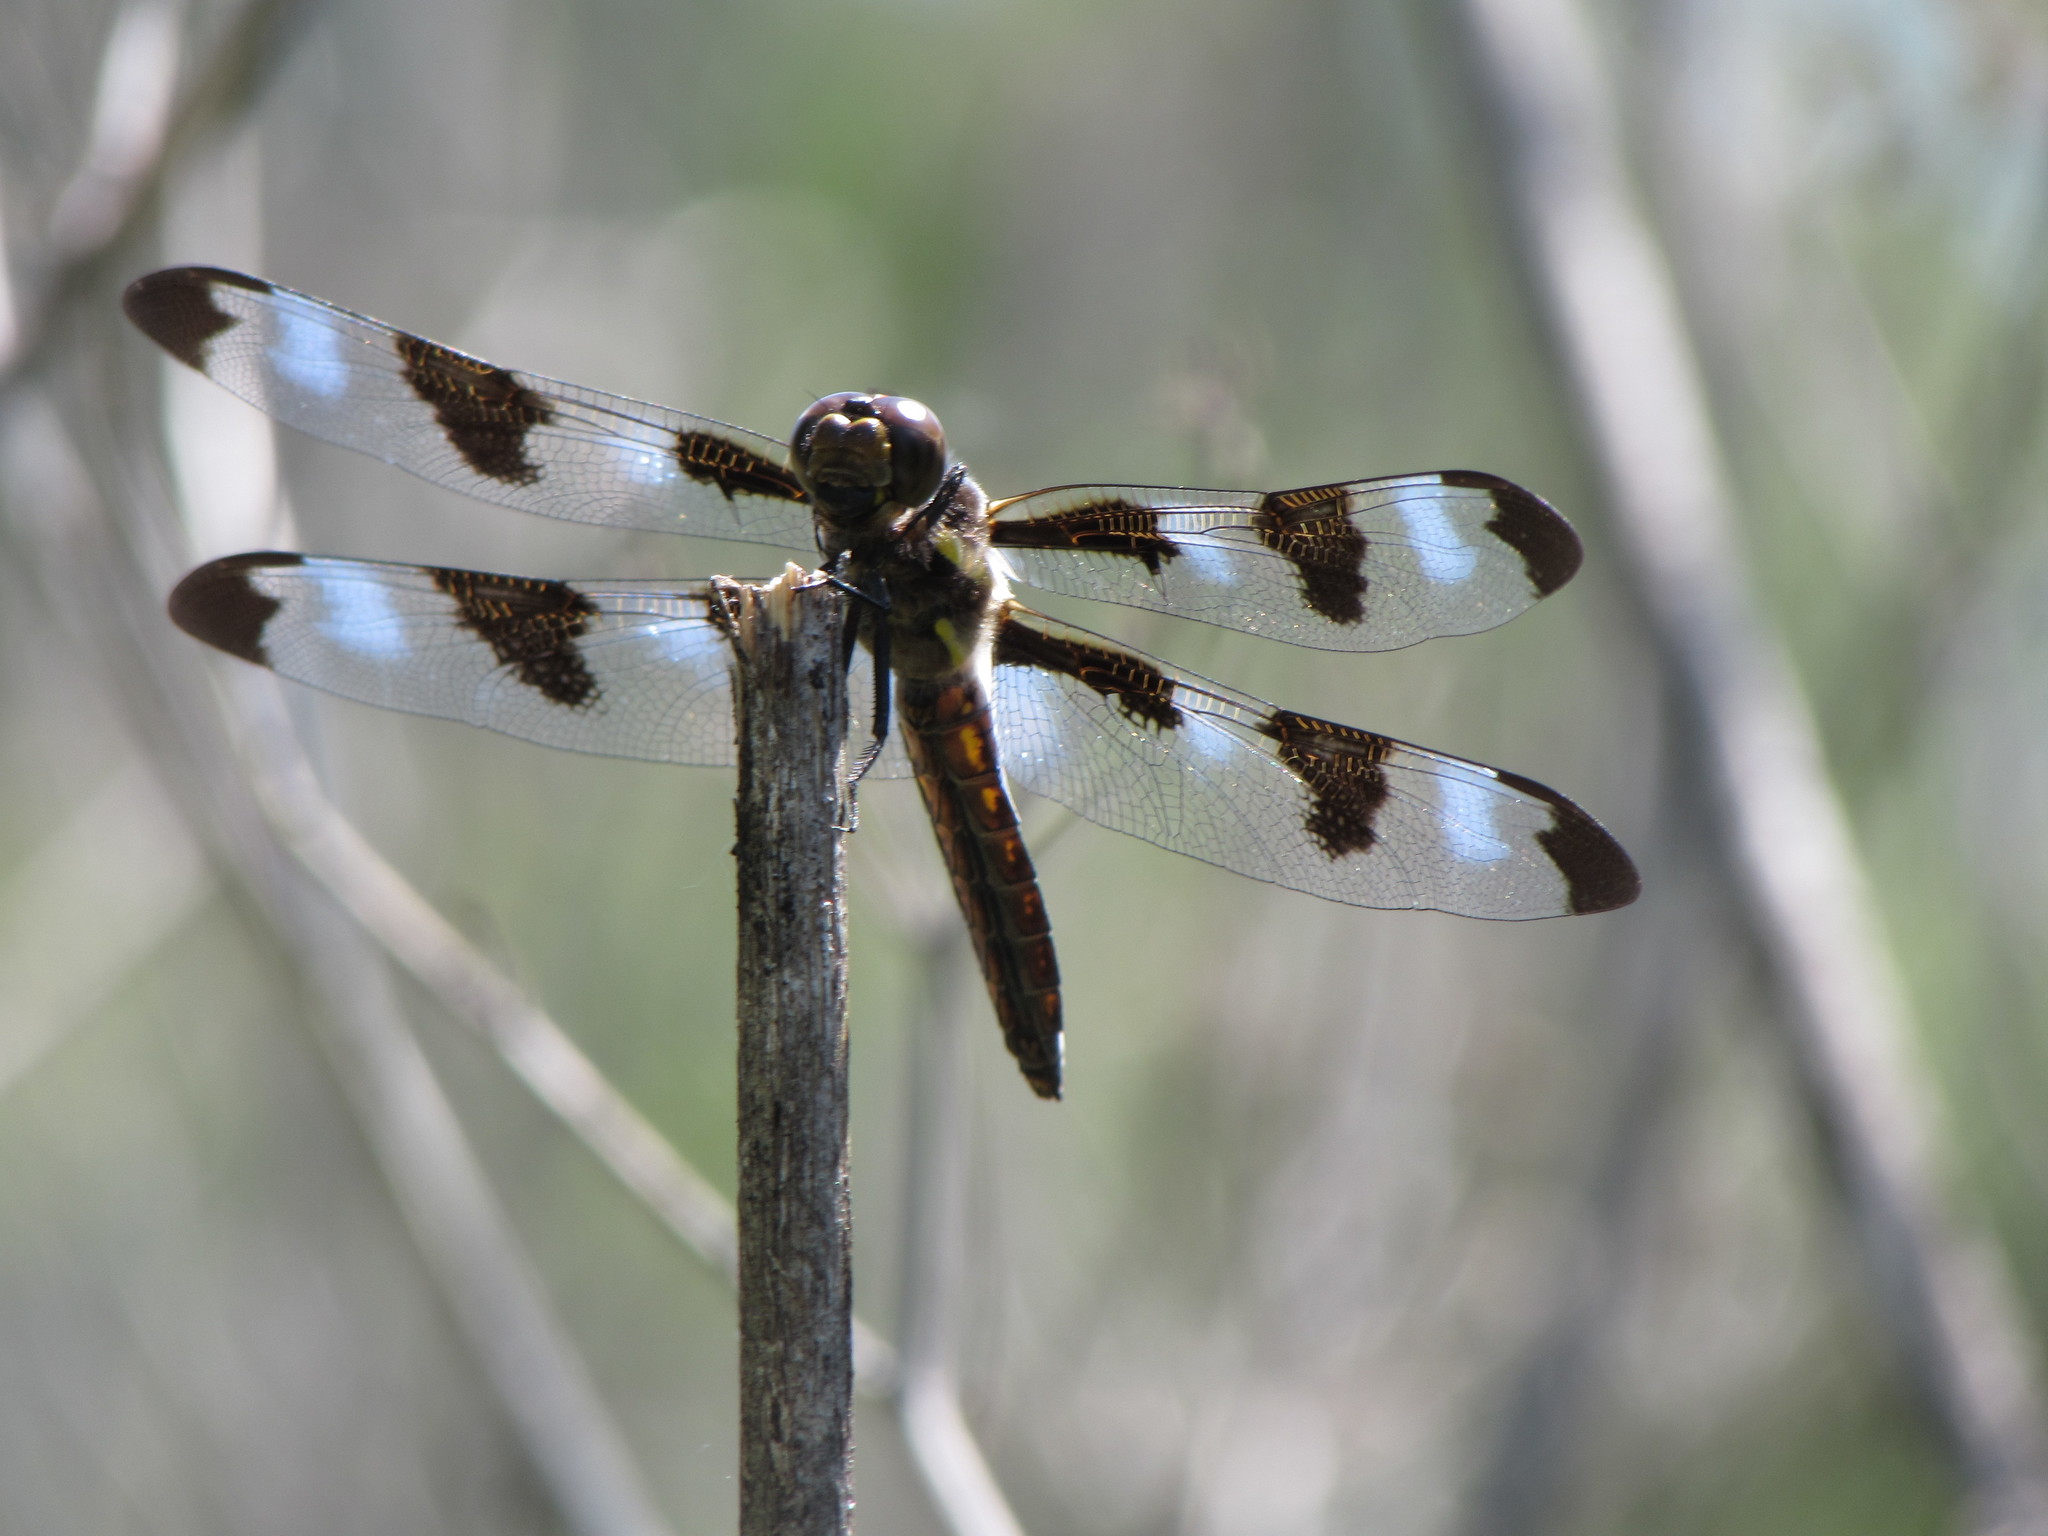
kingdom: Animalia
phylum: Arthropoda
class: Insecta
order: Odonata
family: Libellulidae
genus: Libellula
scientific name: Libellula pulchella
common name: Twelve-spotted skimmer
